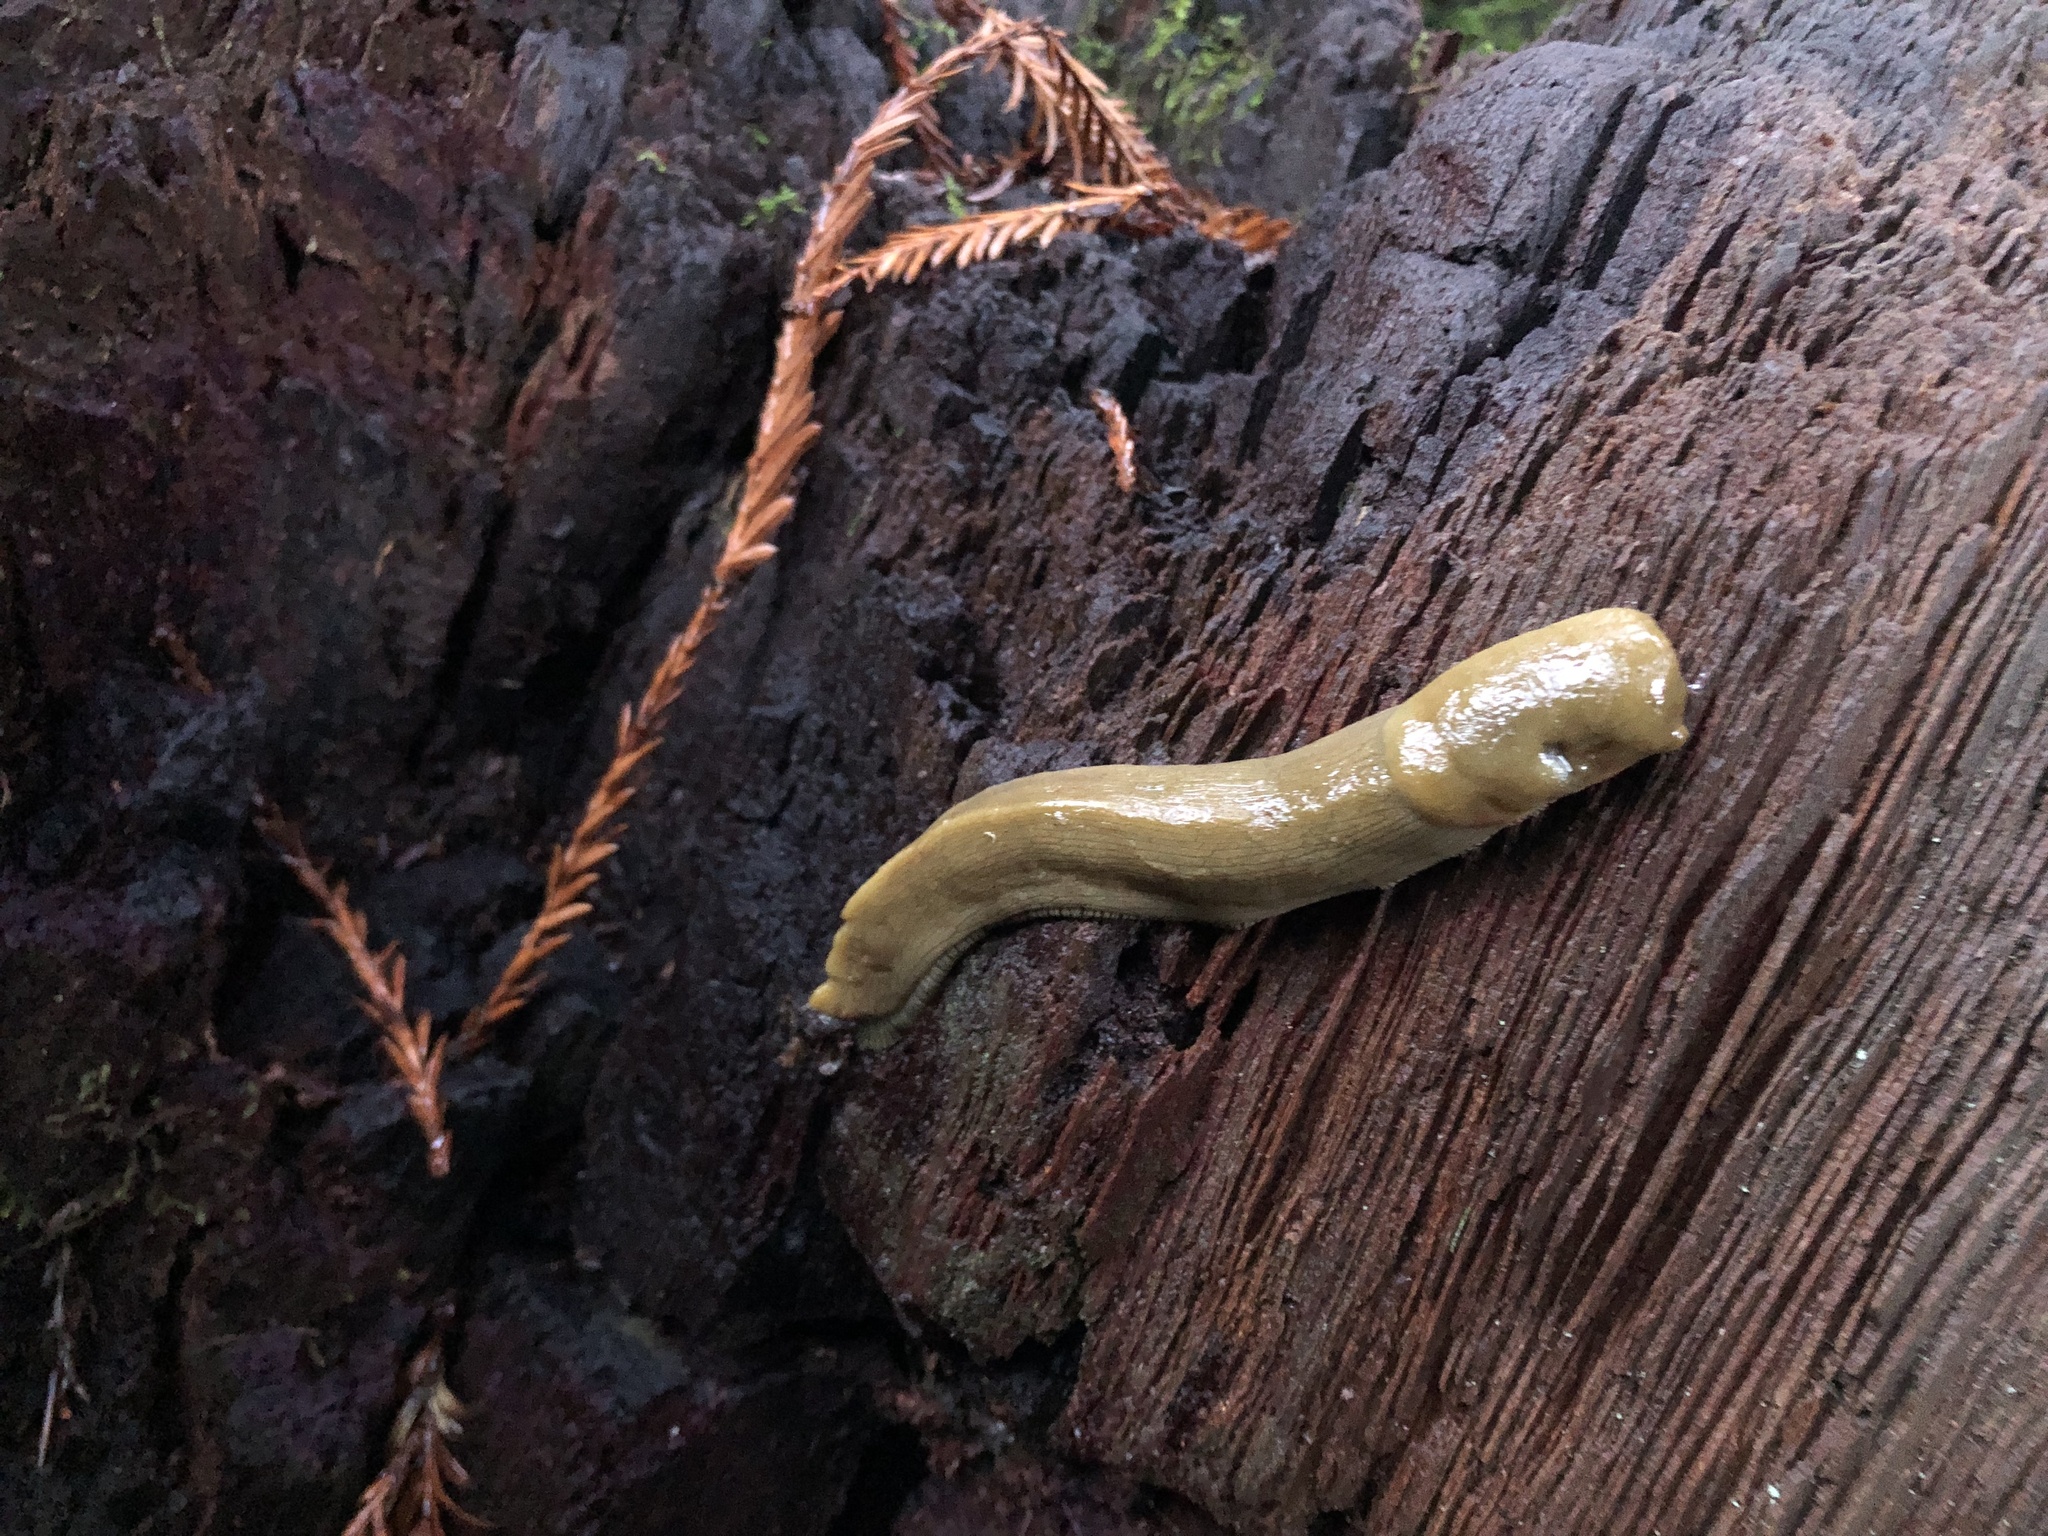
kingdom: Animalia
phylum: Mollusca
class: Gastropoda
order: Stylommatophora
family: Ariolimacidae
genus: Ariolimax
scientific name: Ariolimax buttoni
